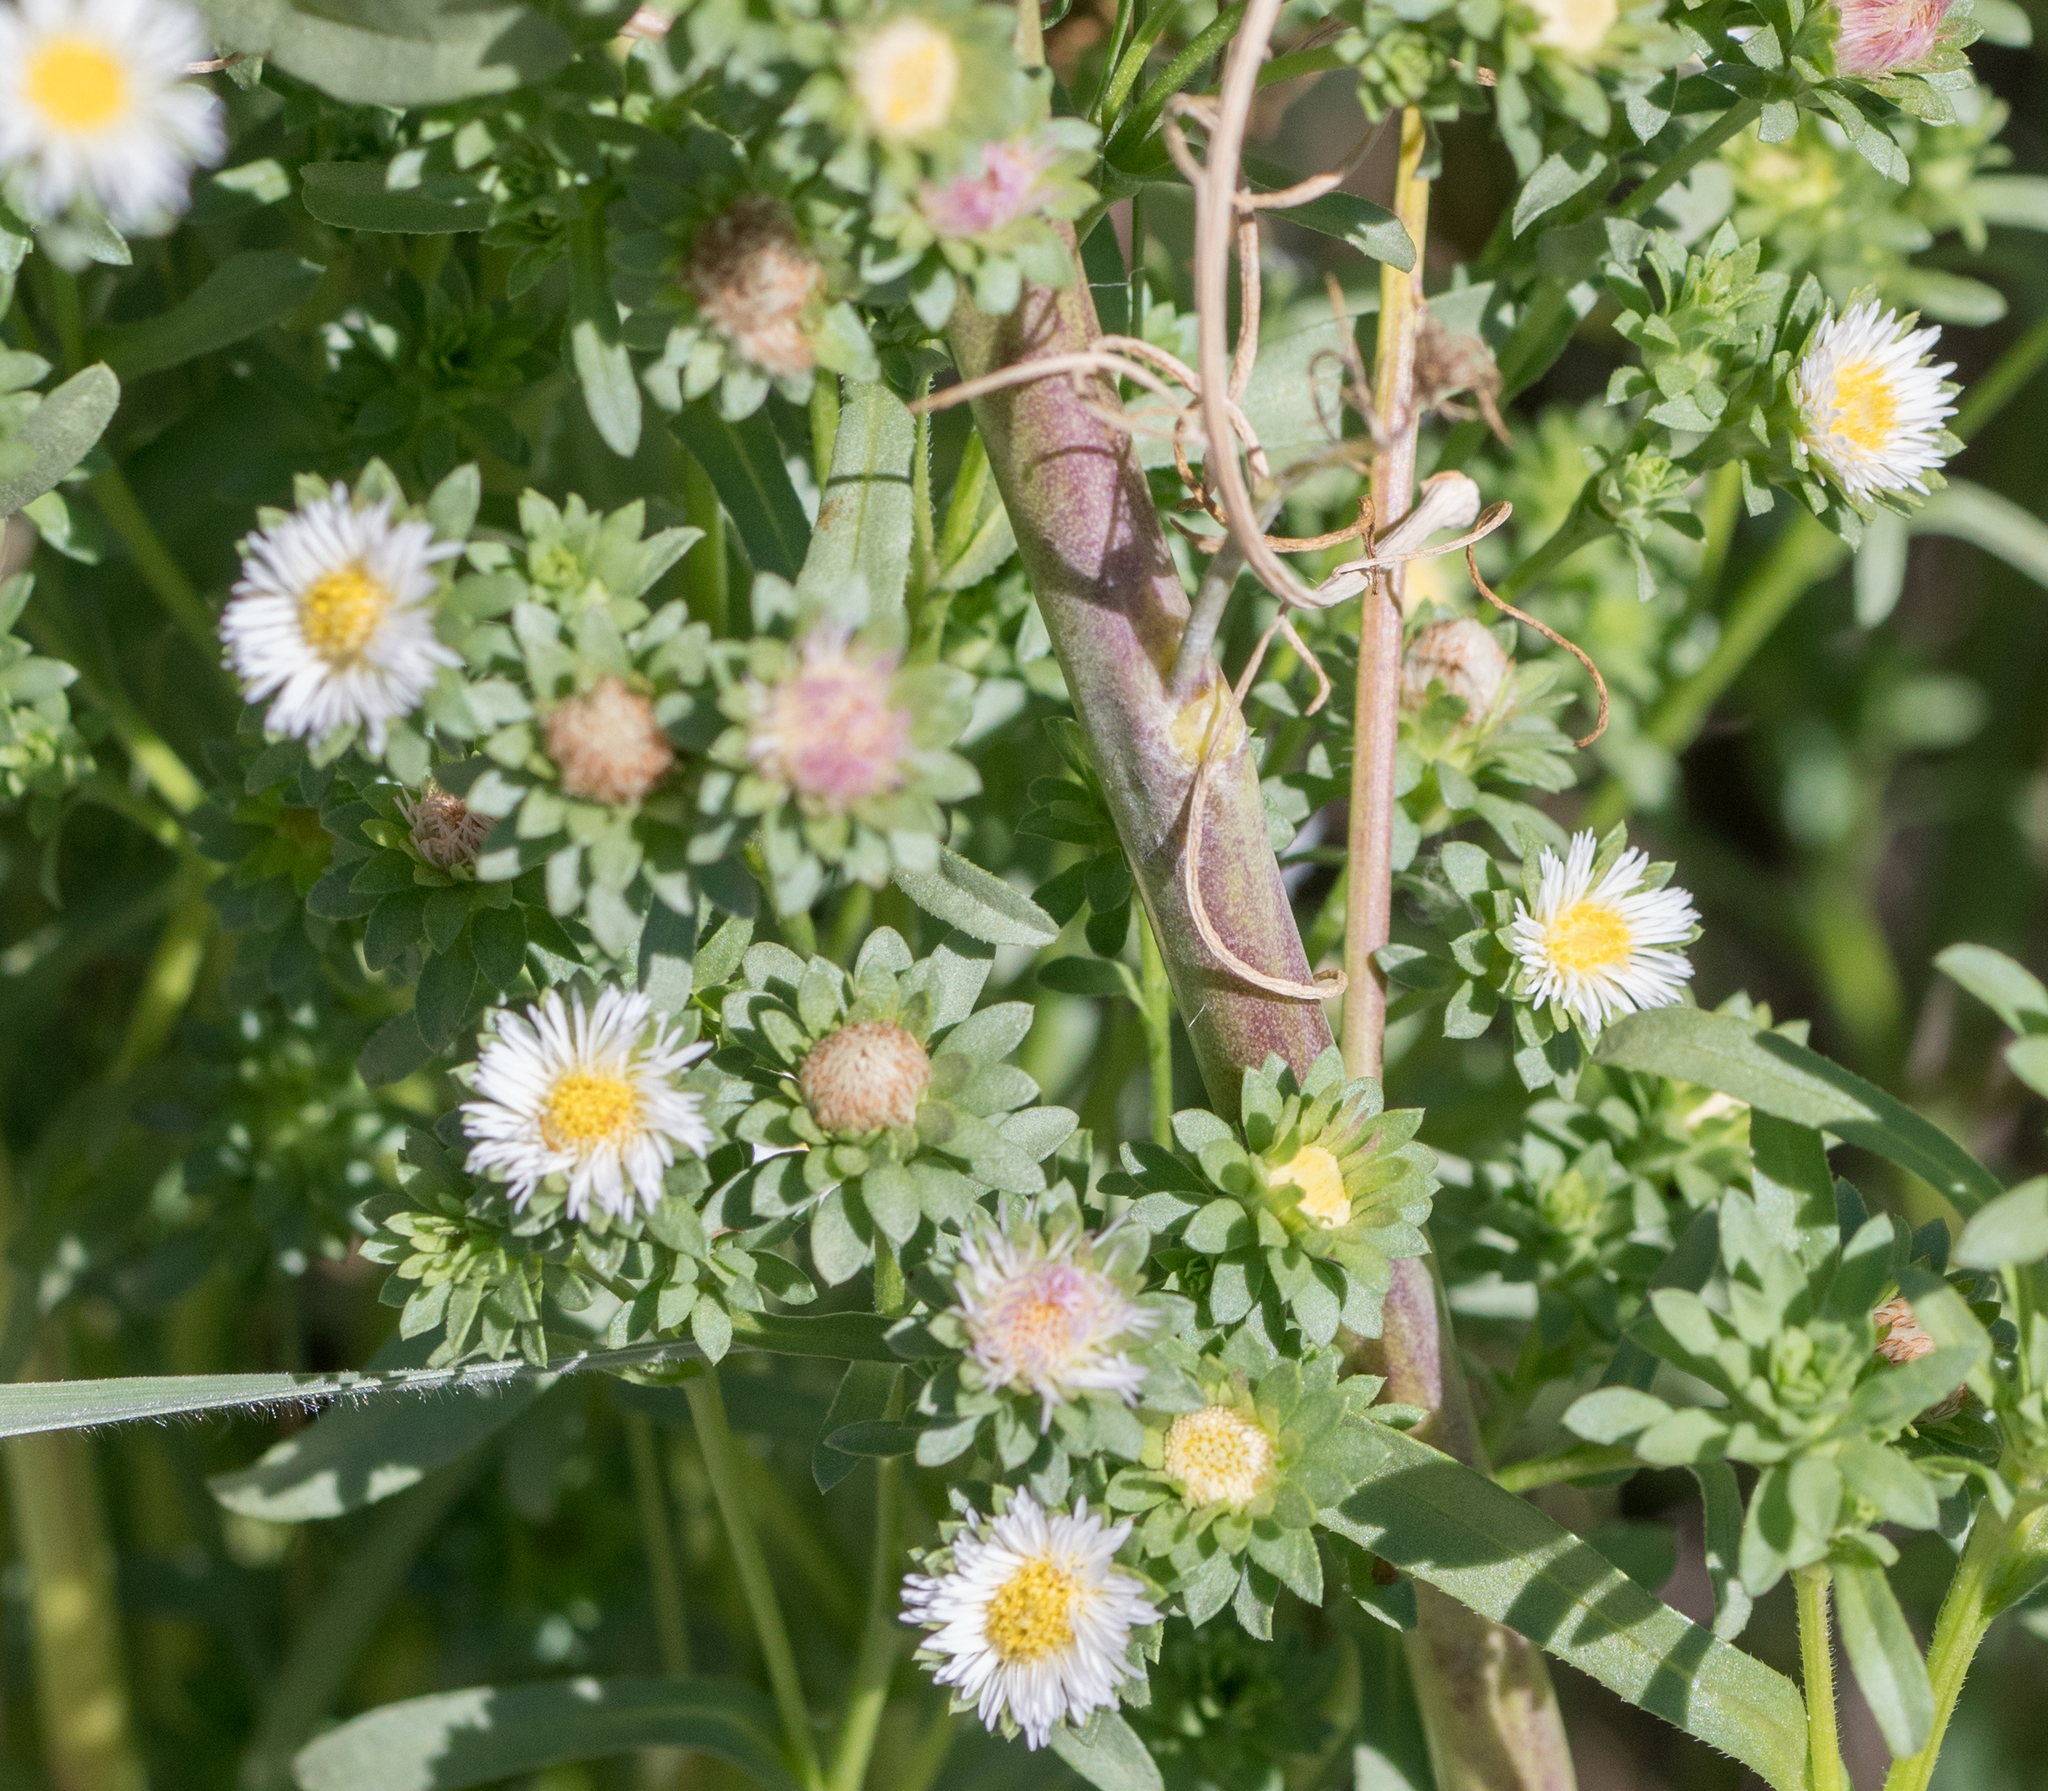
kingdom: Plantae
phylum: Tracheophyta
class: Magnoliopsida
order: Asterales
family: Asteraceae
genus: Symphyotrichum
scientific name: Symphyotrichum frondosum
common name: Leafy aster
